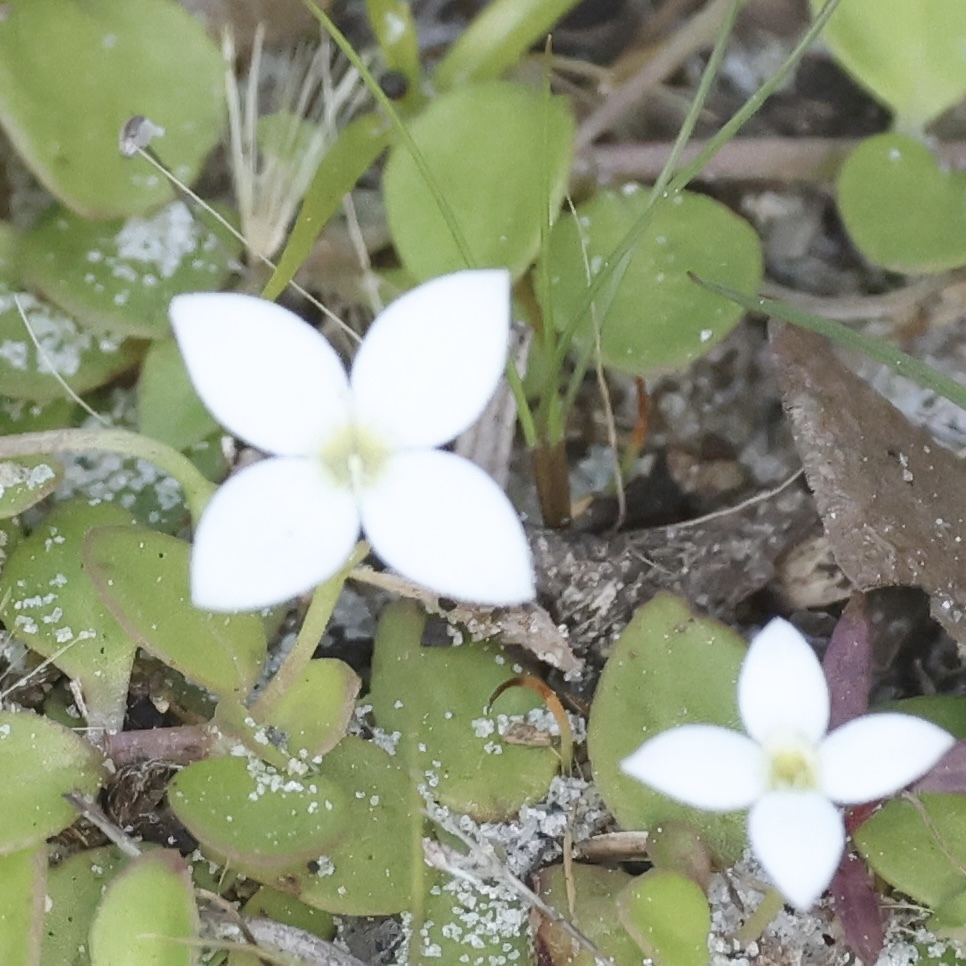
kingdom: Plantae
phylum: Tracheophyta
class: Magnoliopsida
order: Gentianales
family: Rubiaceae
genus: Houstonia
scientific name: Houstonia procumbens
